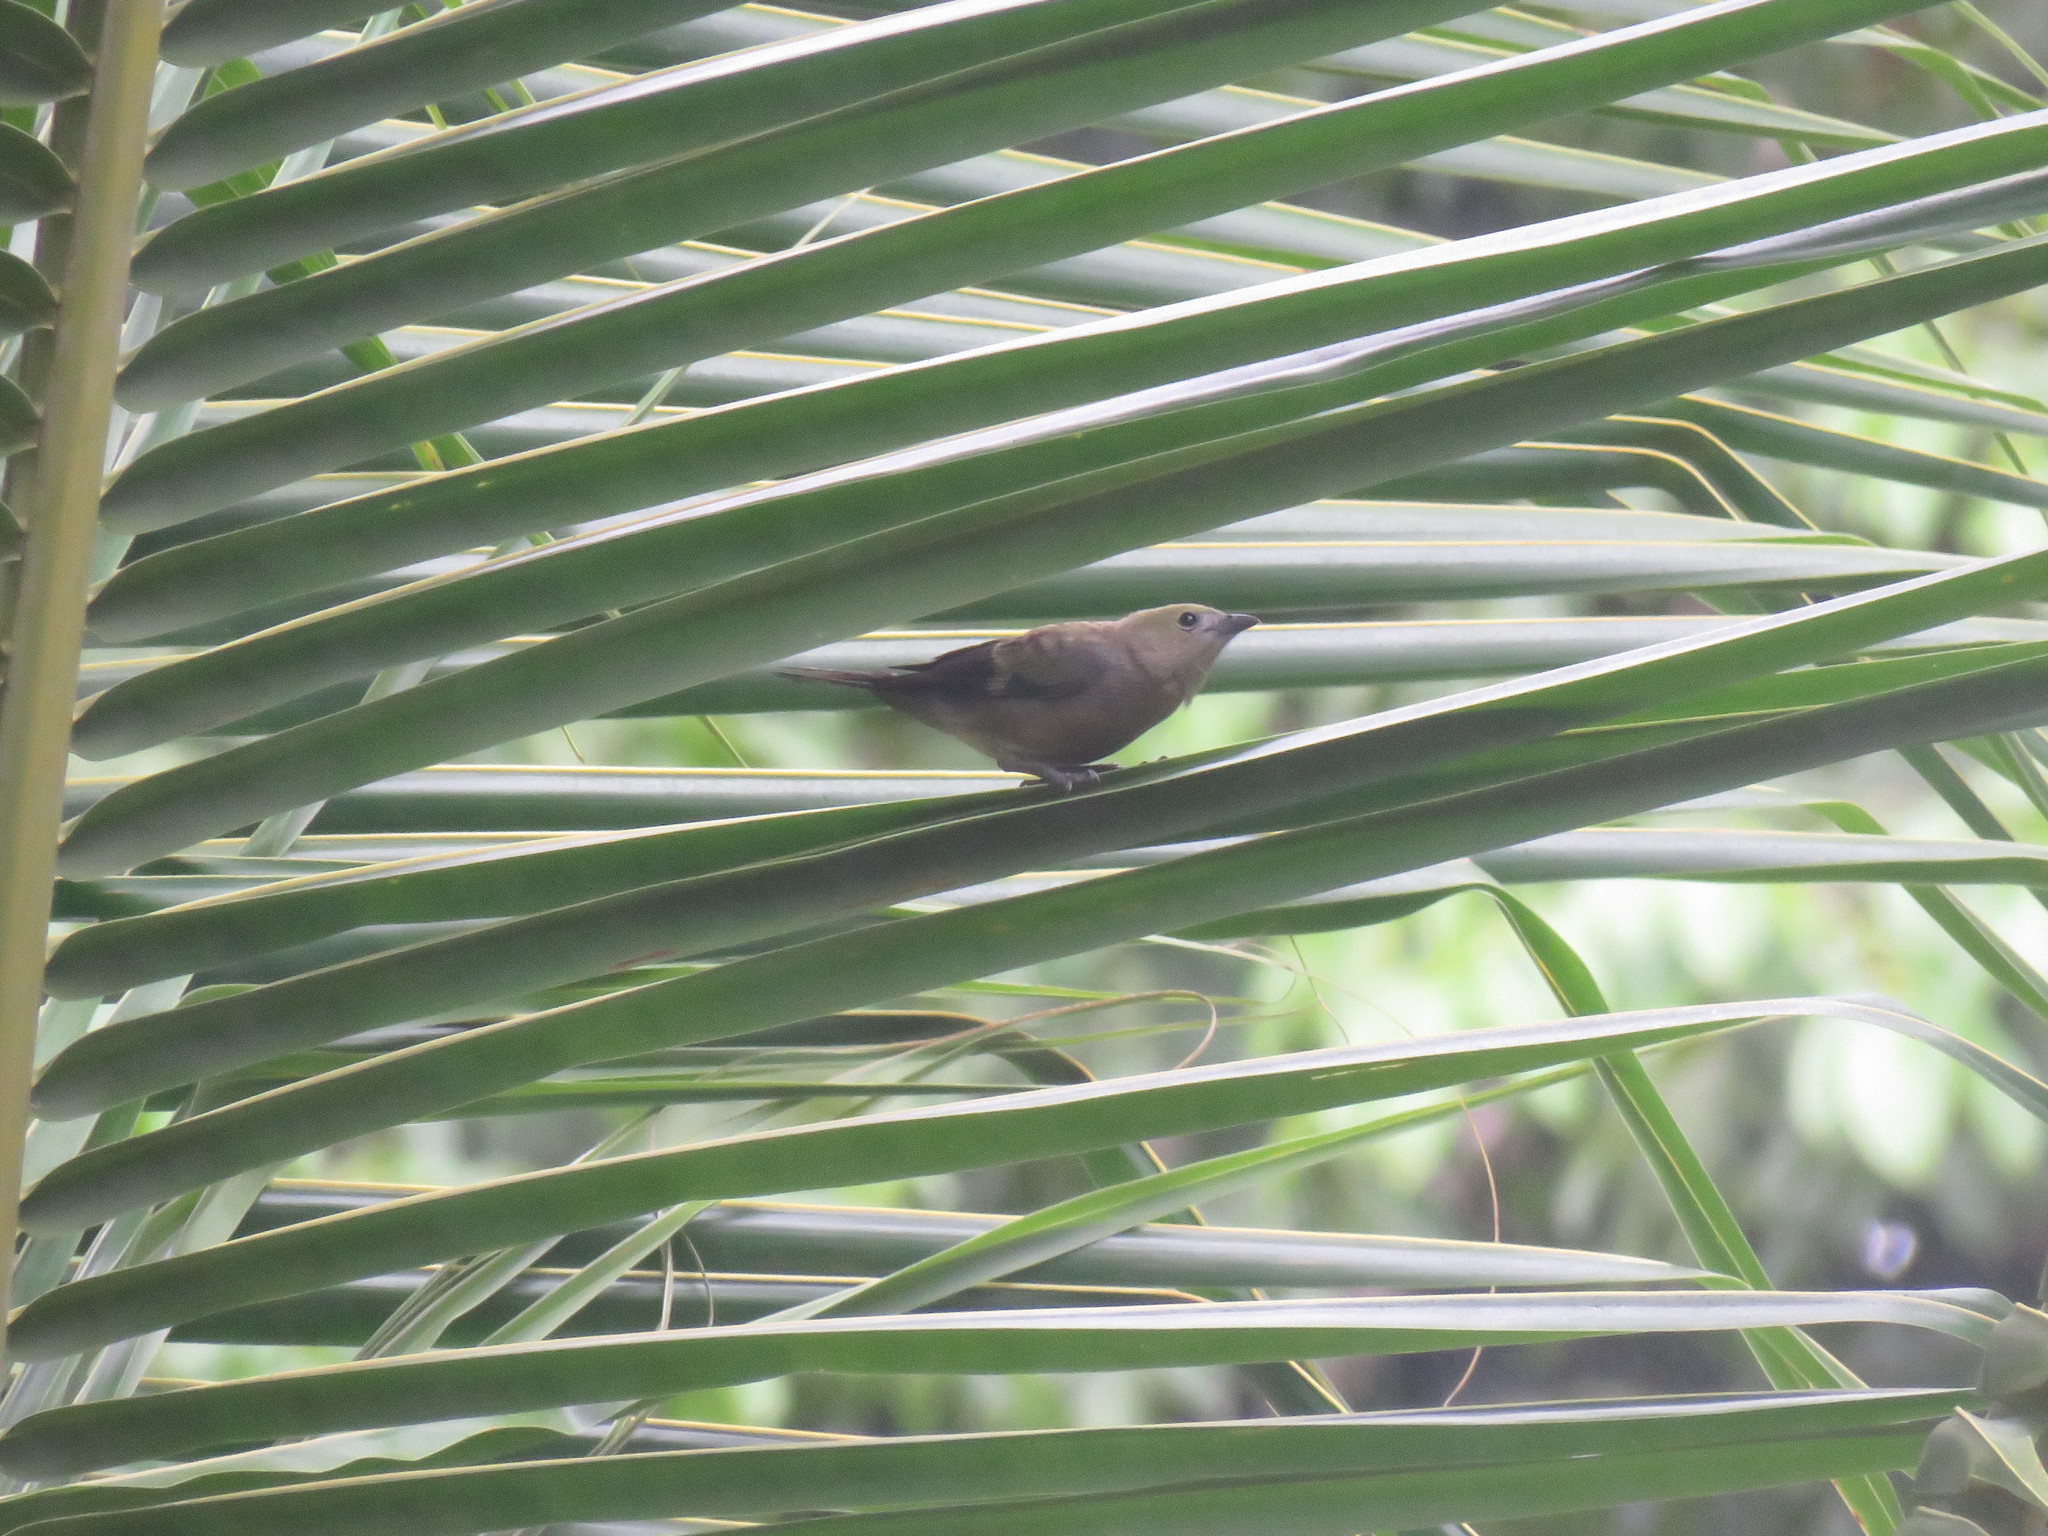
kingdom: Animalia
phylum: Chordata
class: Aves
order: Passeriformes
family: Thraupidae
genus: Thraupis
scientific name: Thraupis palmarum
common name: Palm tanager
